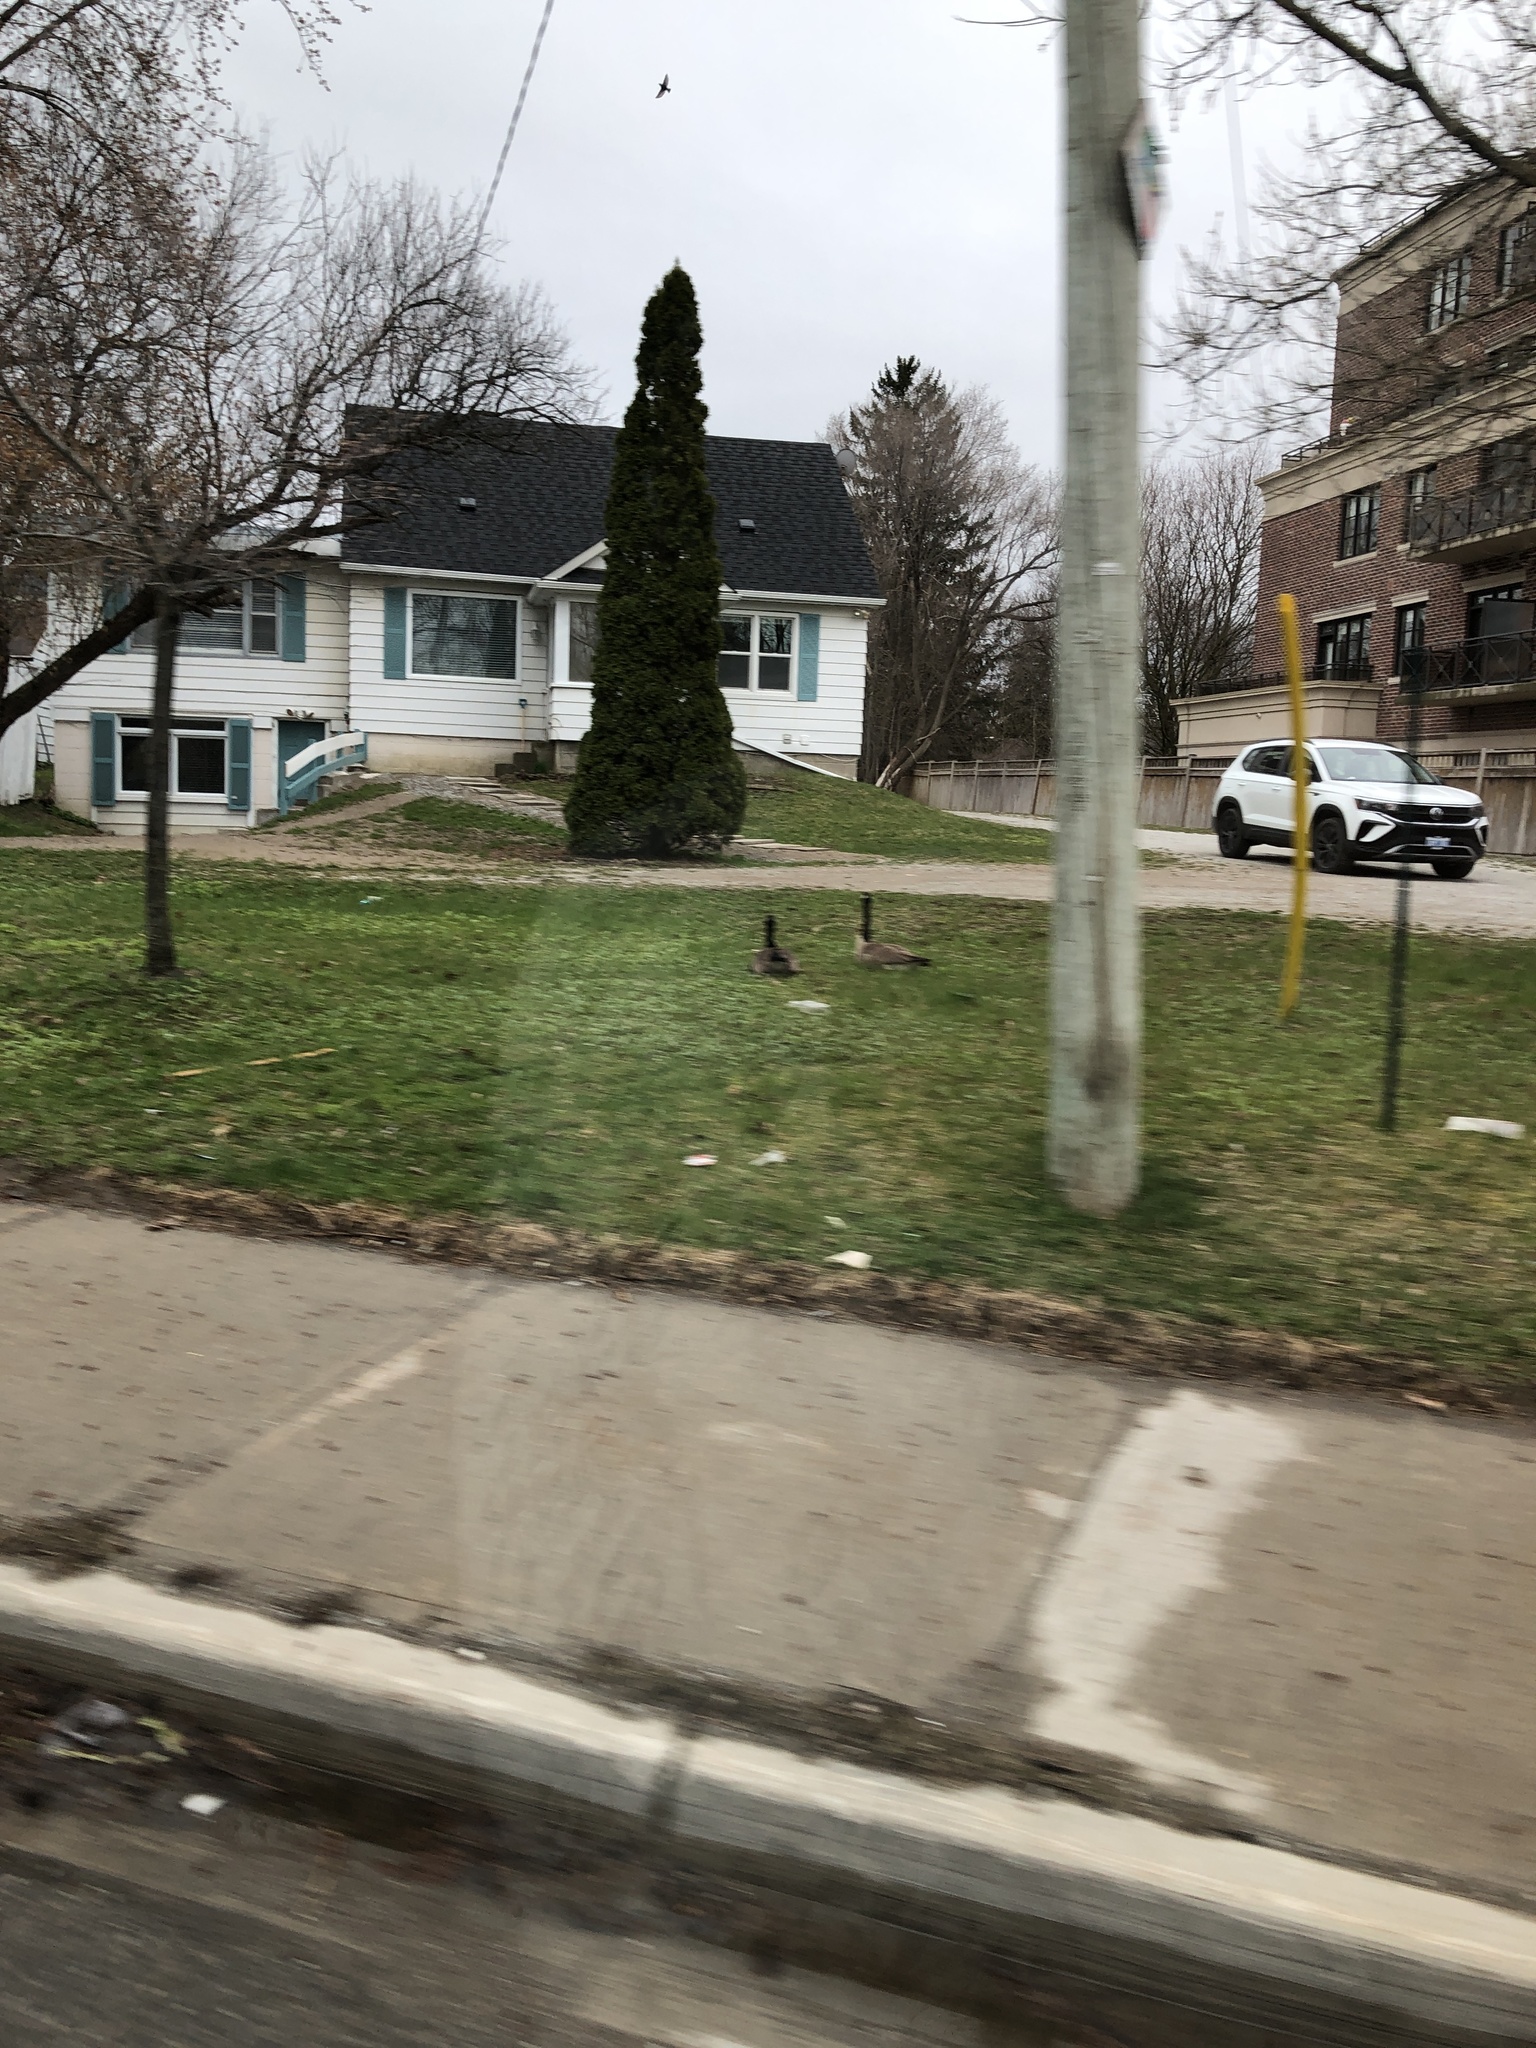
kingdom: Animalia
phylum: Chordata
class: Aves
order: Anseriformes
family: Anatidae
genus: Branta
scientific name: Branta canadensis
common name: Canada goose
